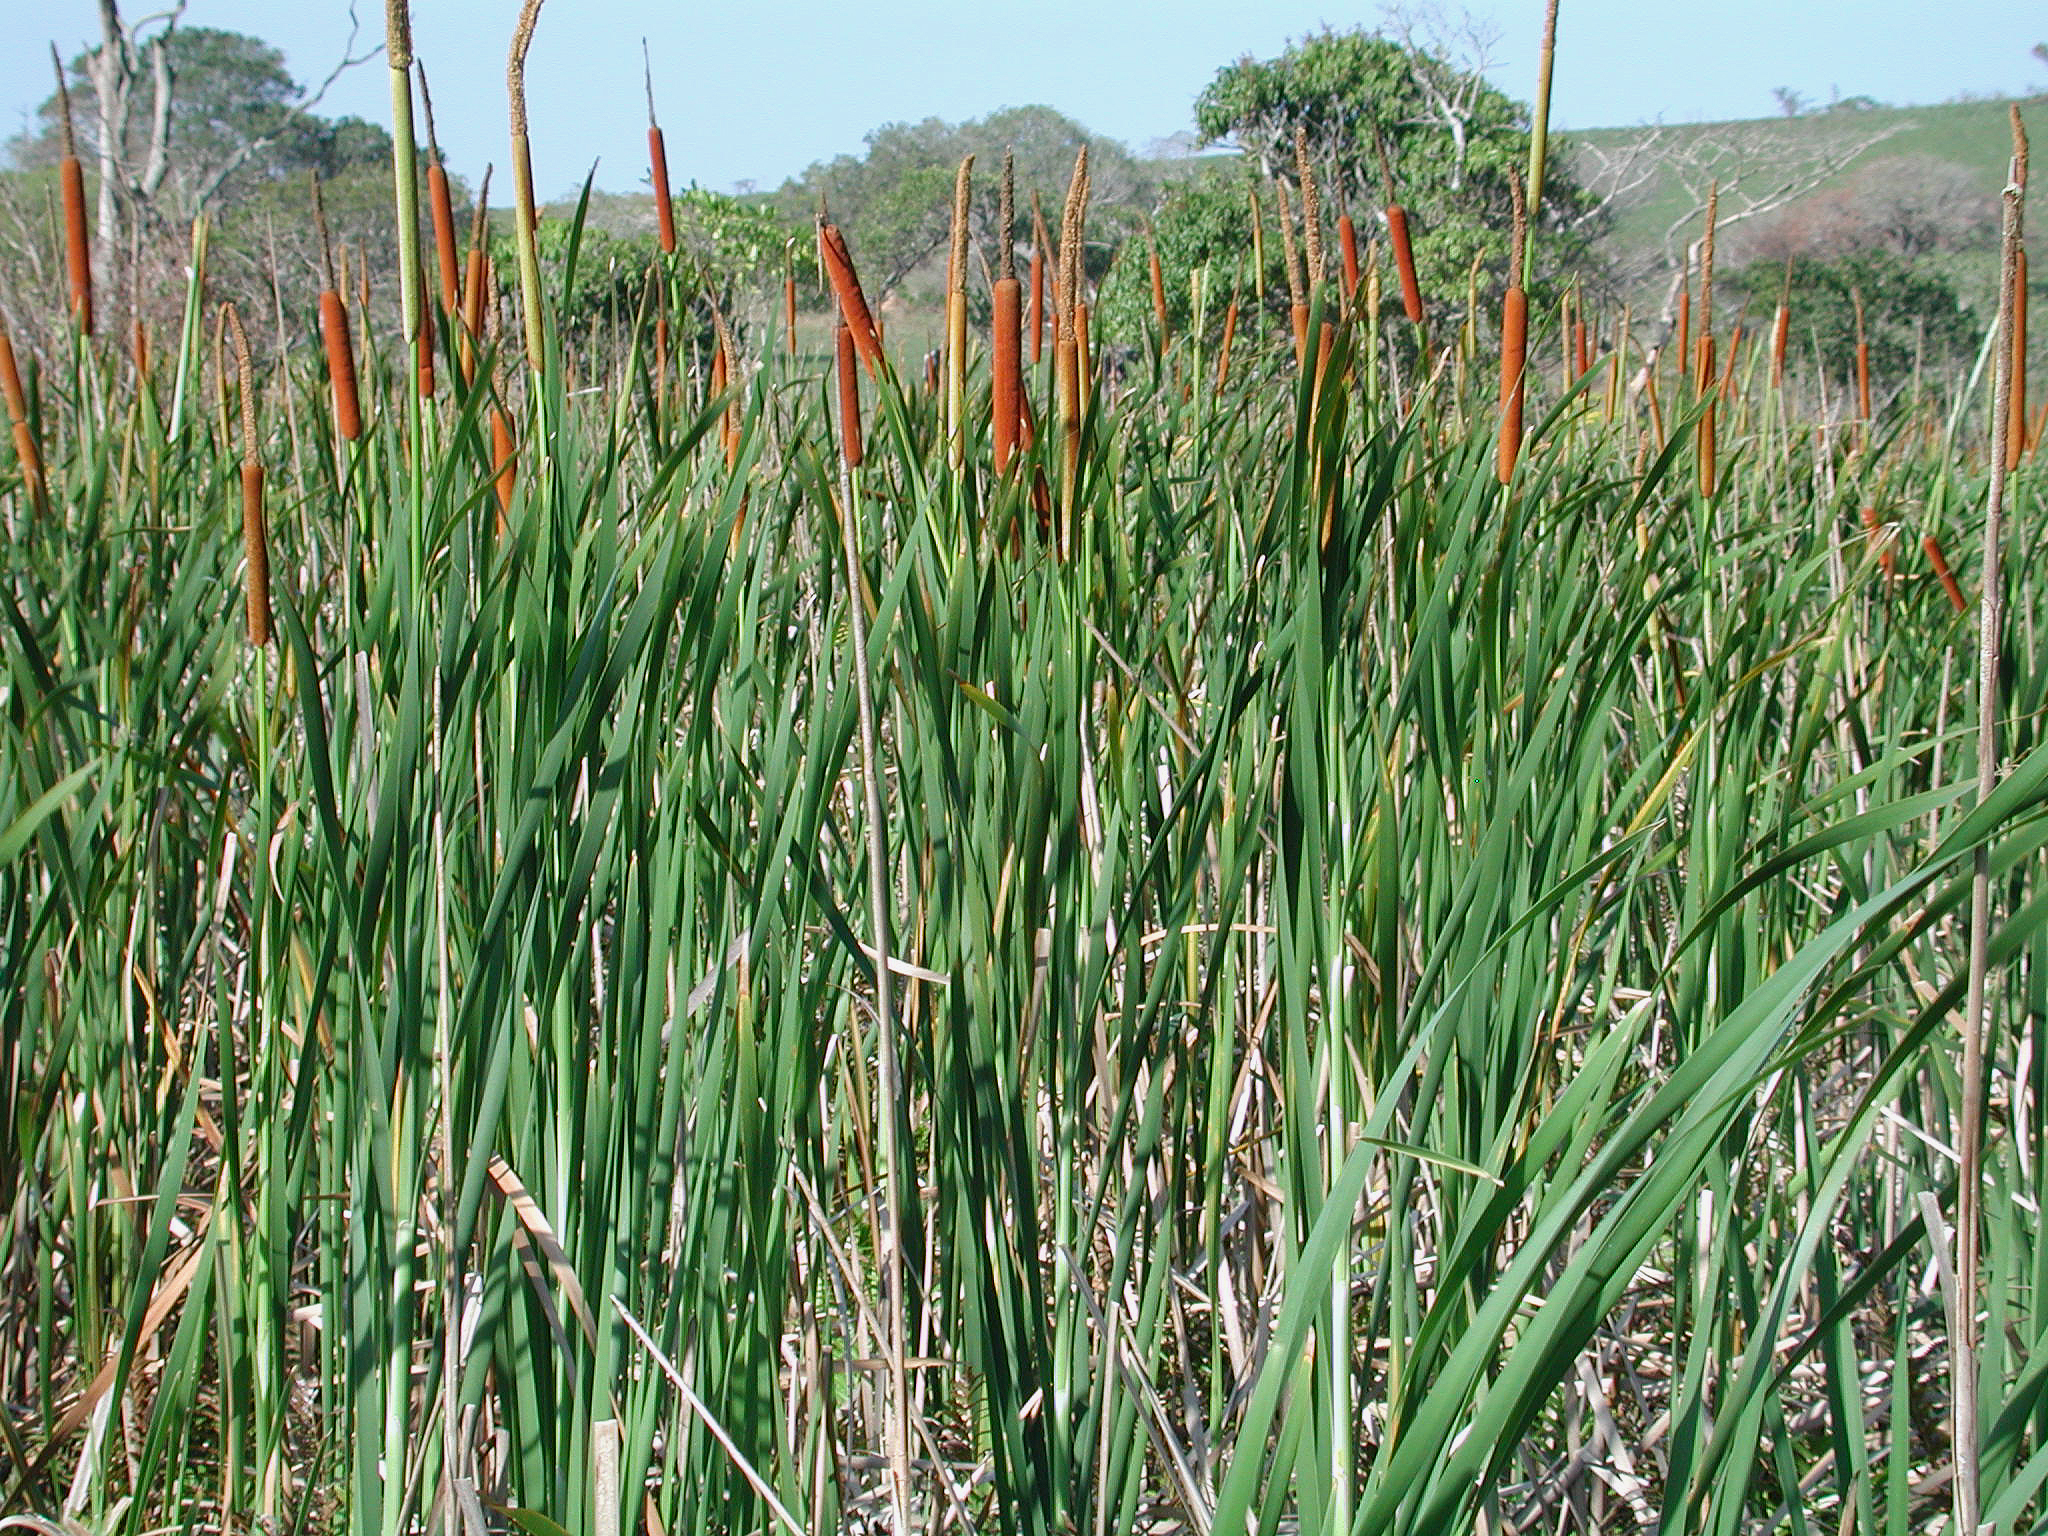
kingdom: Plantae
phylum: Tracheophyta
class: Liliopsida
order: Poales
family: Typhaceae
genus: Typha
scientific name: Typha capensis
